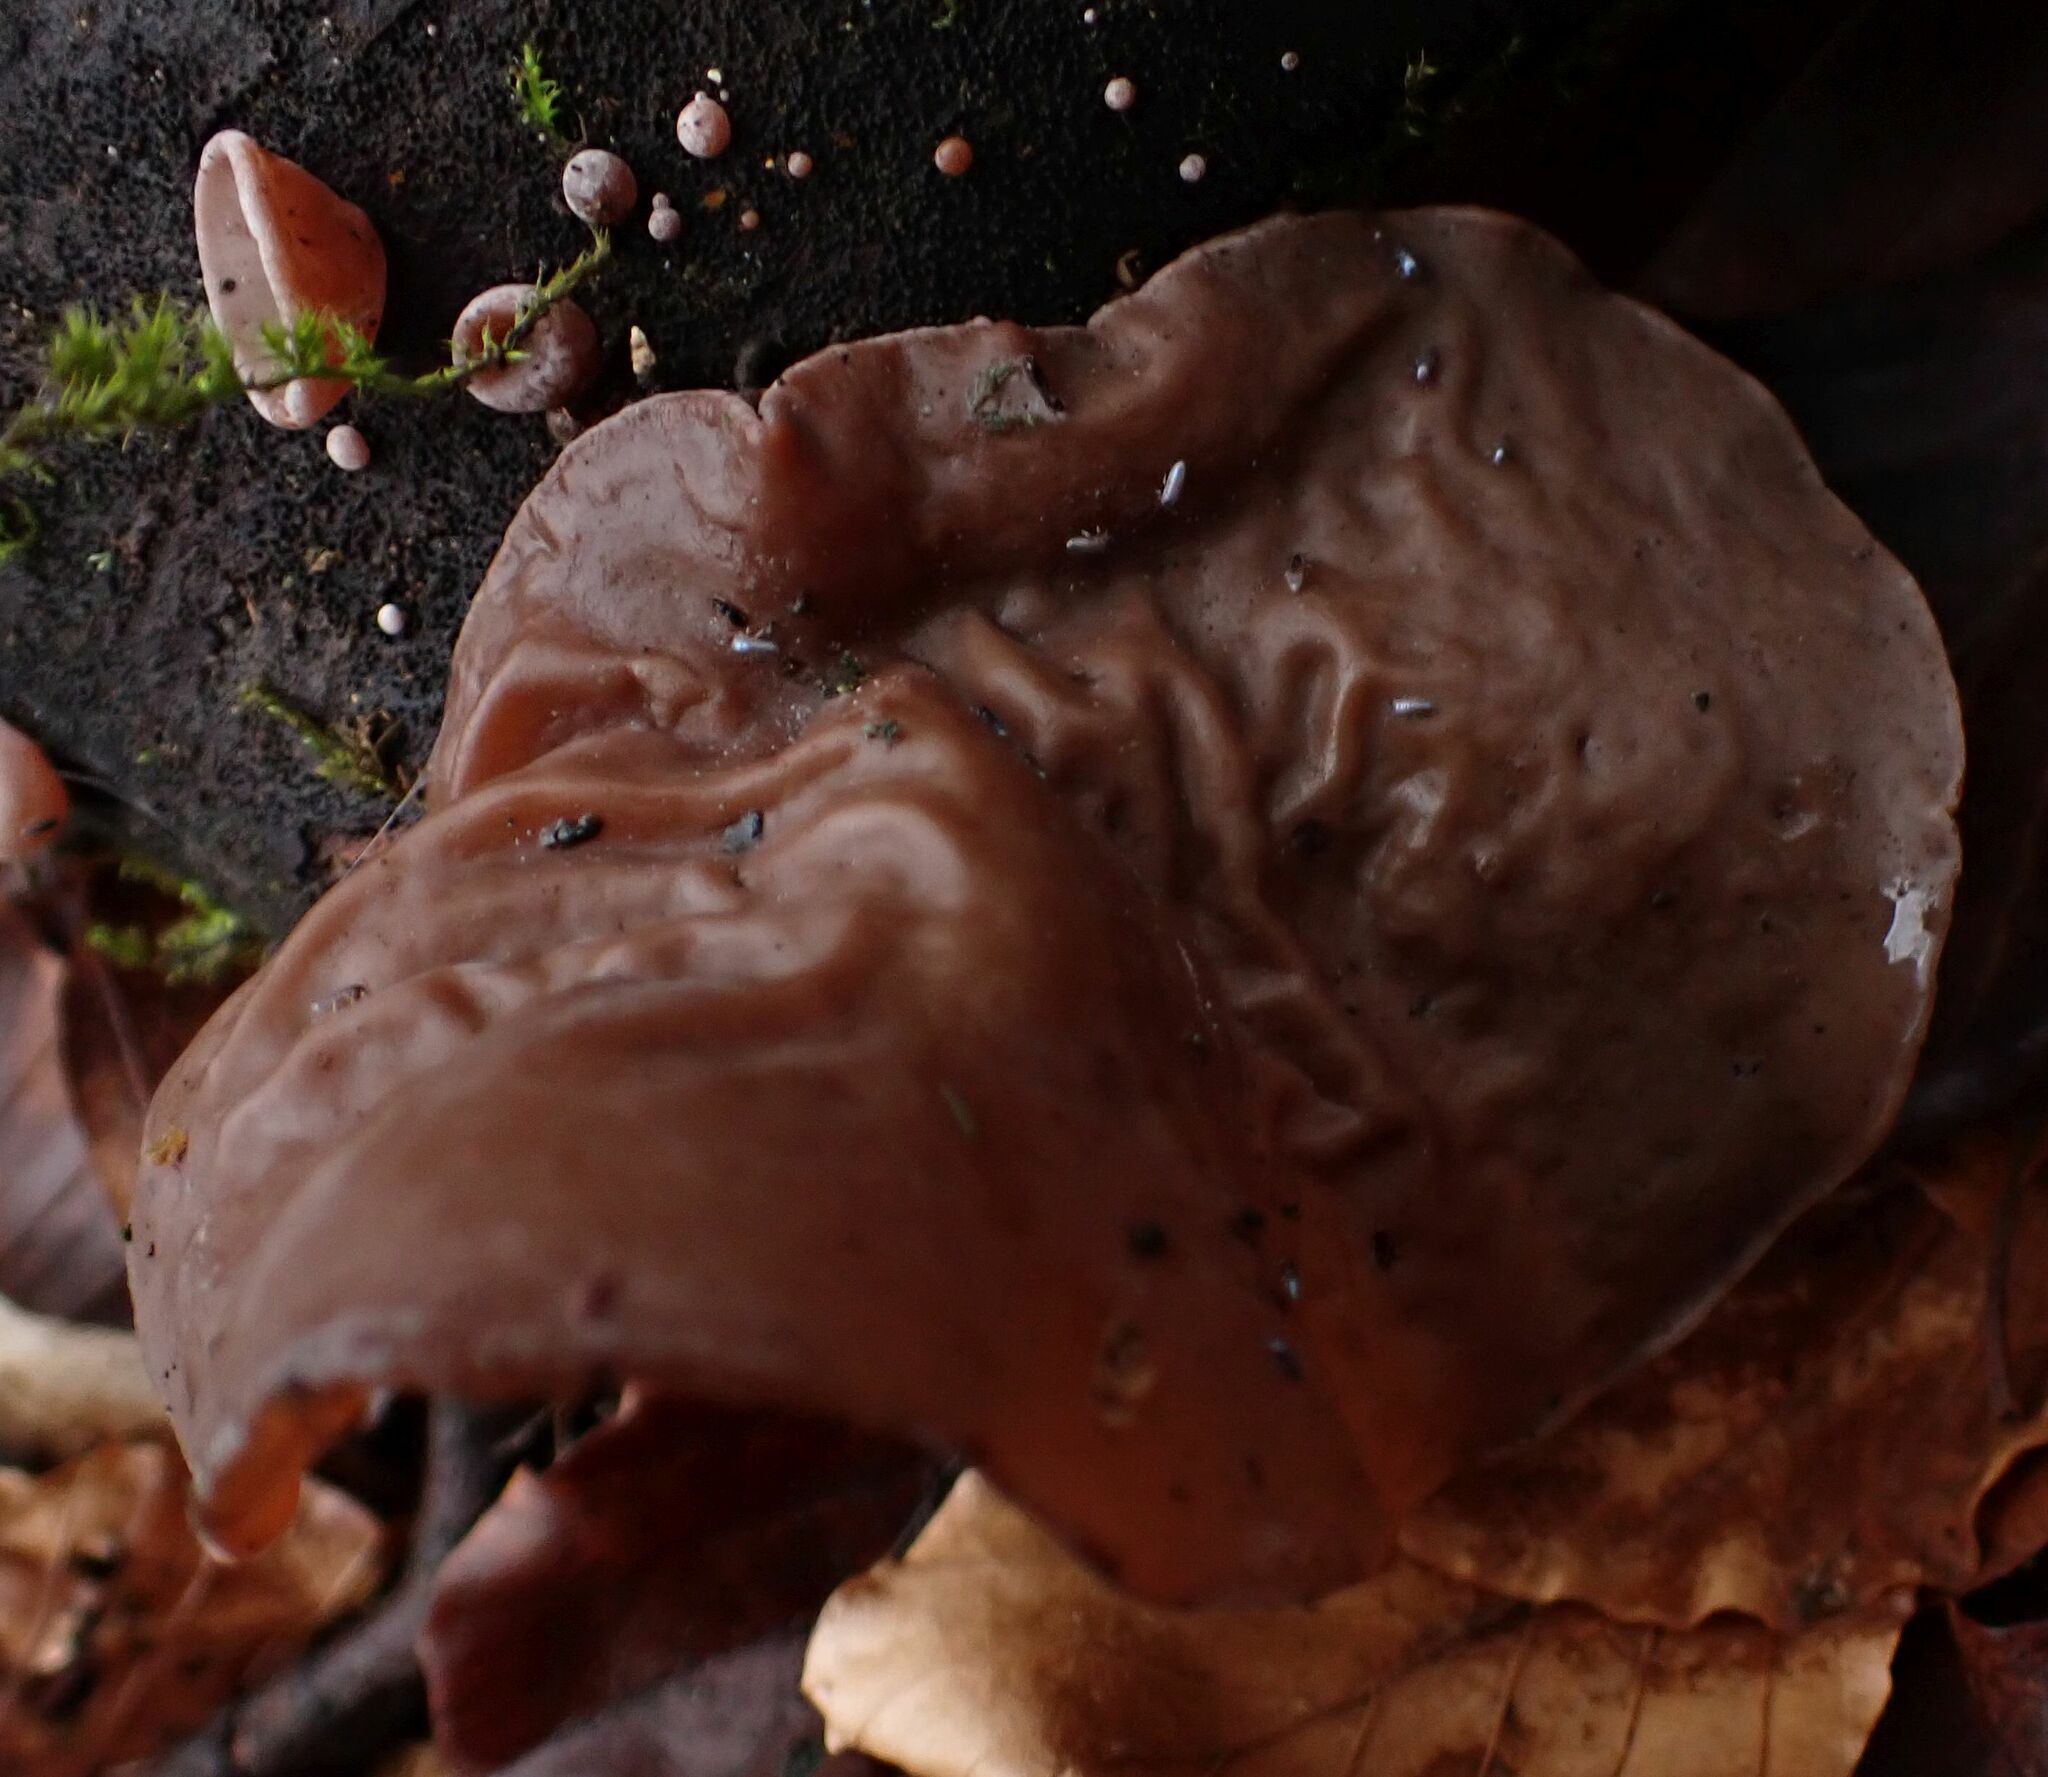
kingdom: Fungi
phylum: Basidiomycota
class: Agaricomycetes
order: Auriculariales
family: Auriculariaceae
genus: Auricularia
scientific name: Auricularia auricula-judae
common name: Jelly ear
